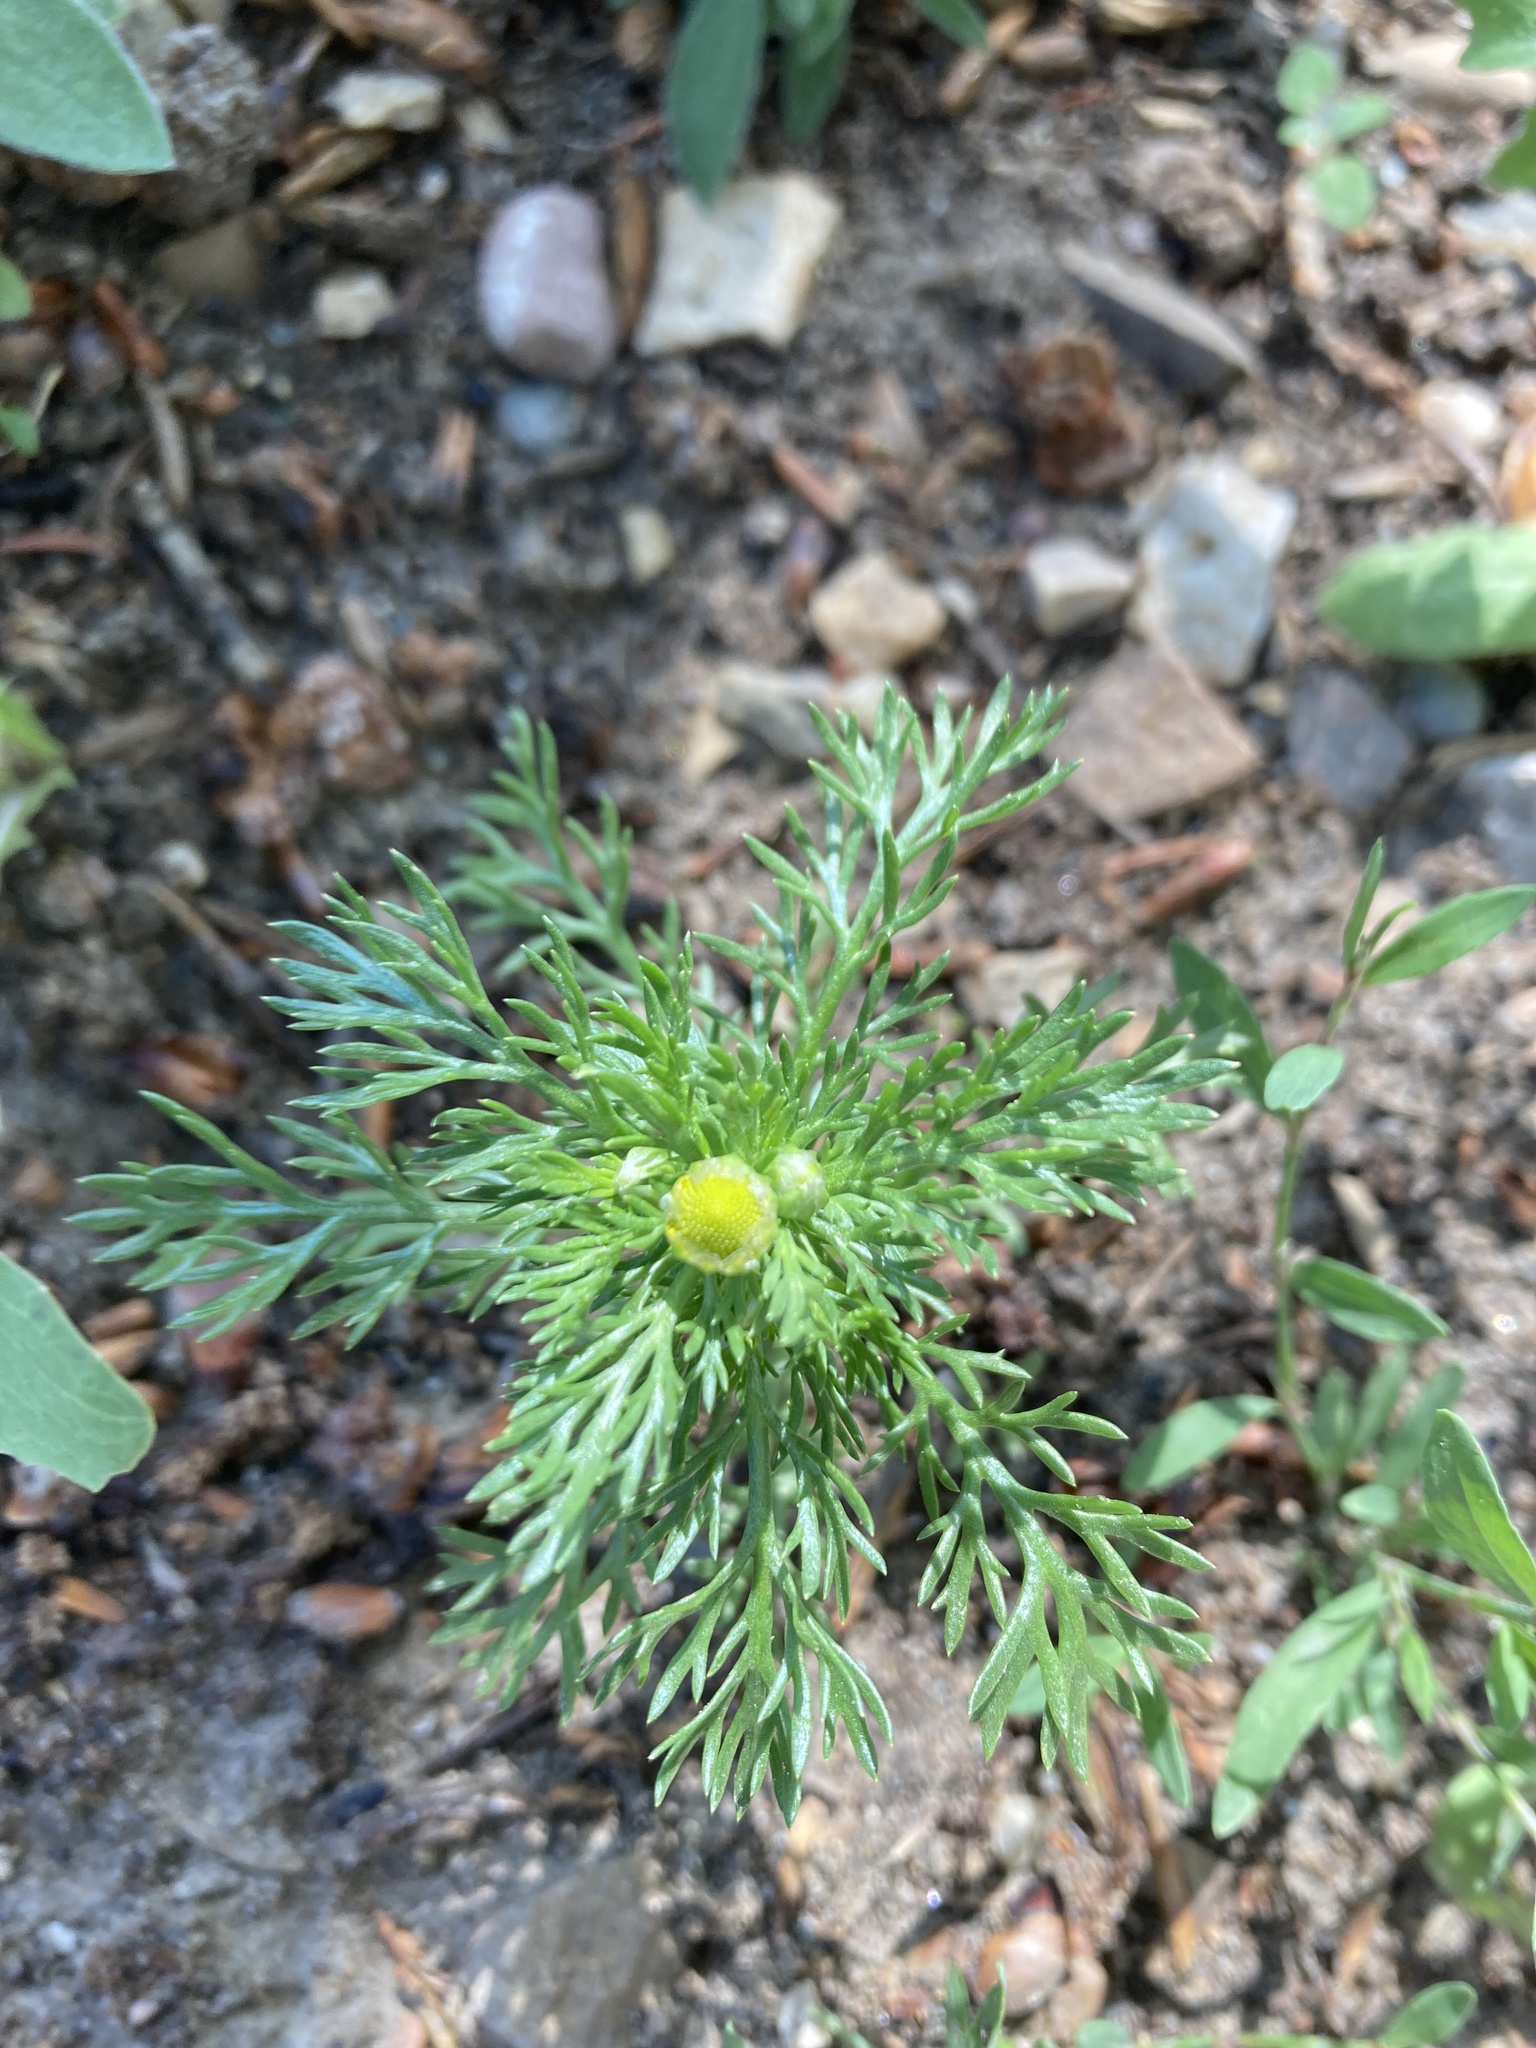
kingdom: Plantae
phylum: Tracheophyta
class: Magnoliopsida
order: Asterales
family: Asteraceae
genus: Matricaria
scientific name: Matricaria discoidea
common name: Disc mayweed
